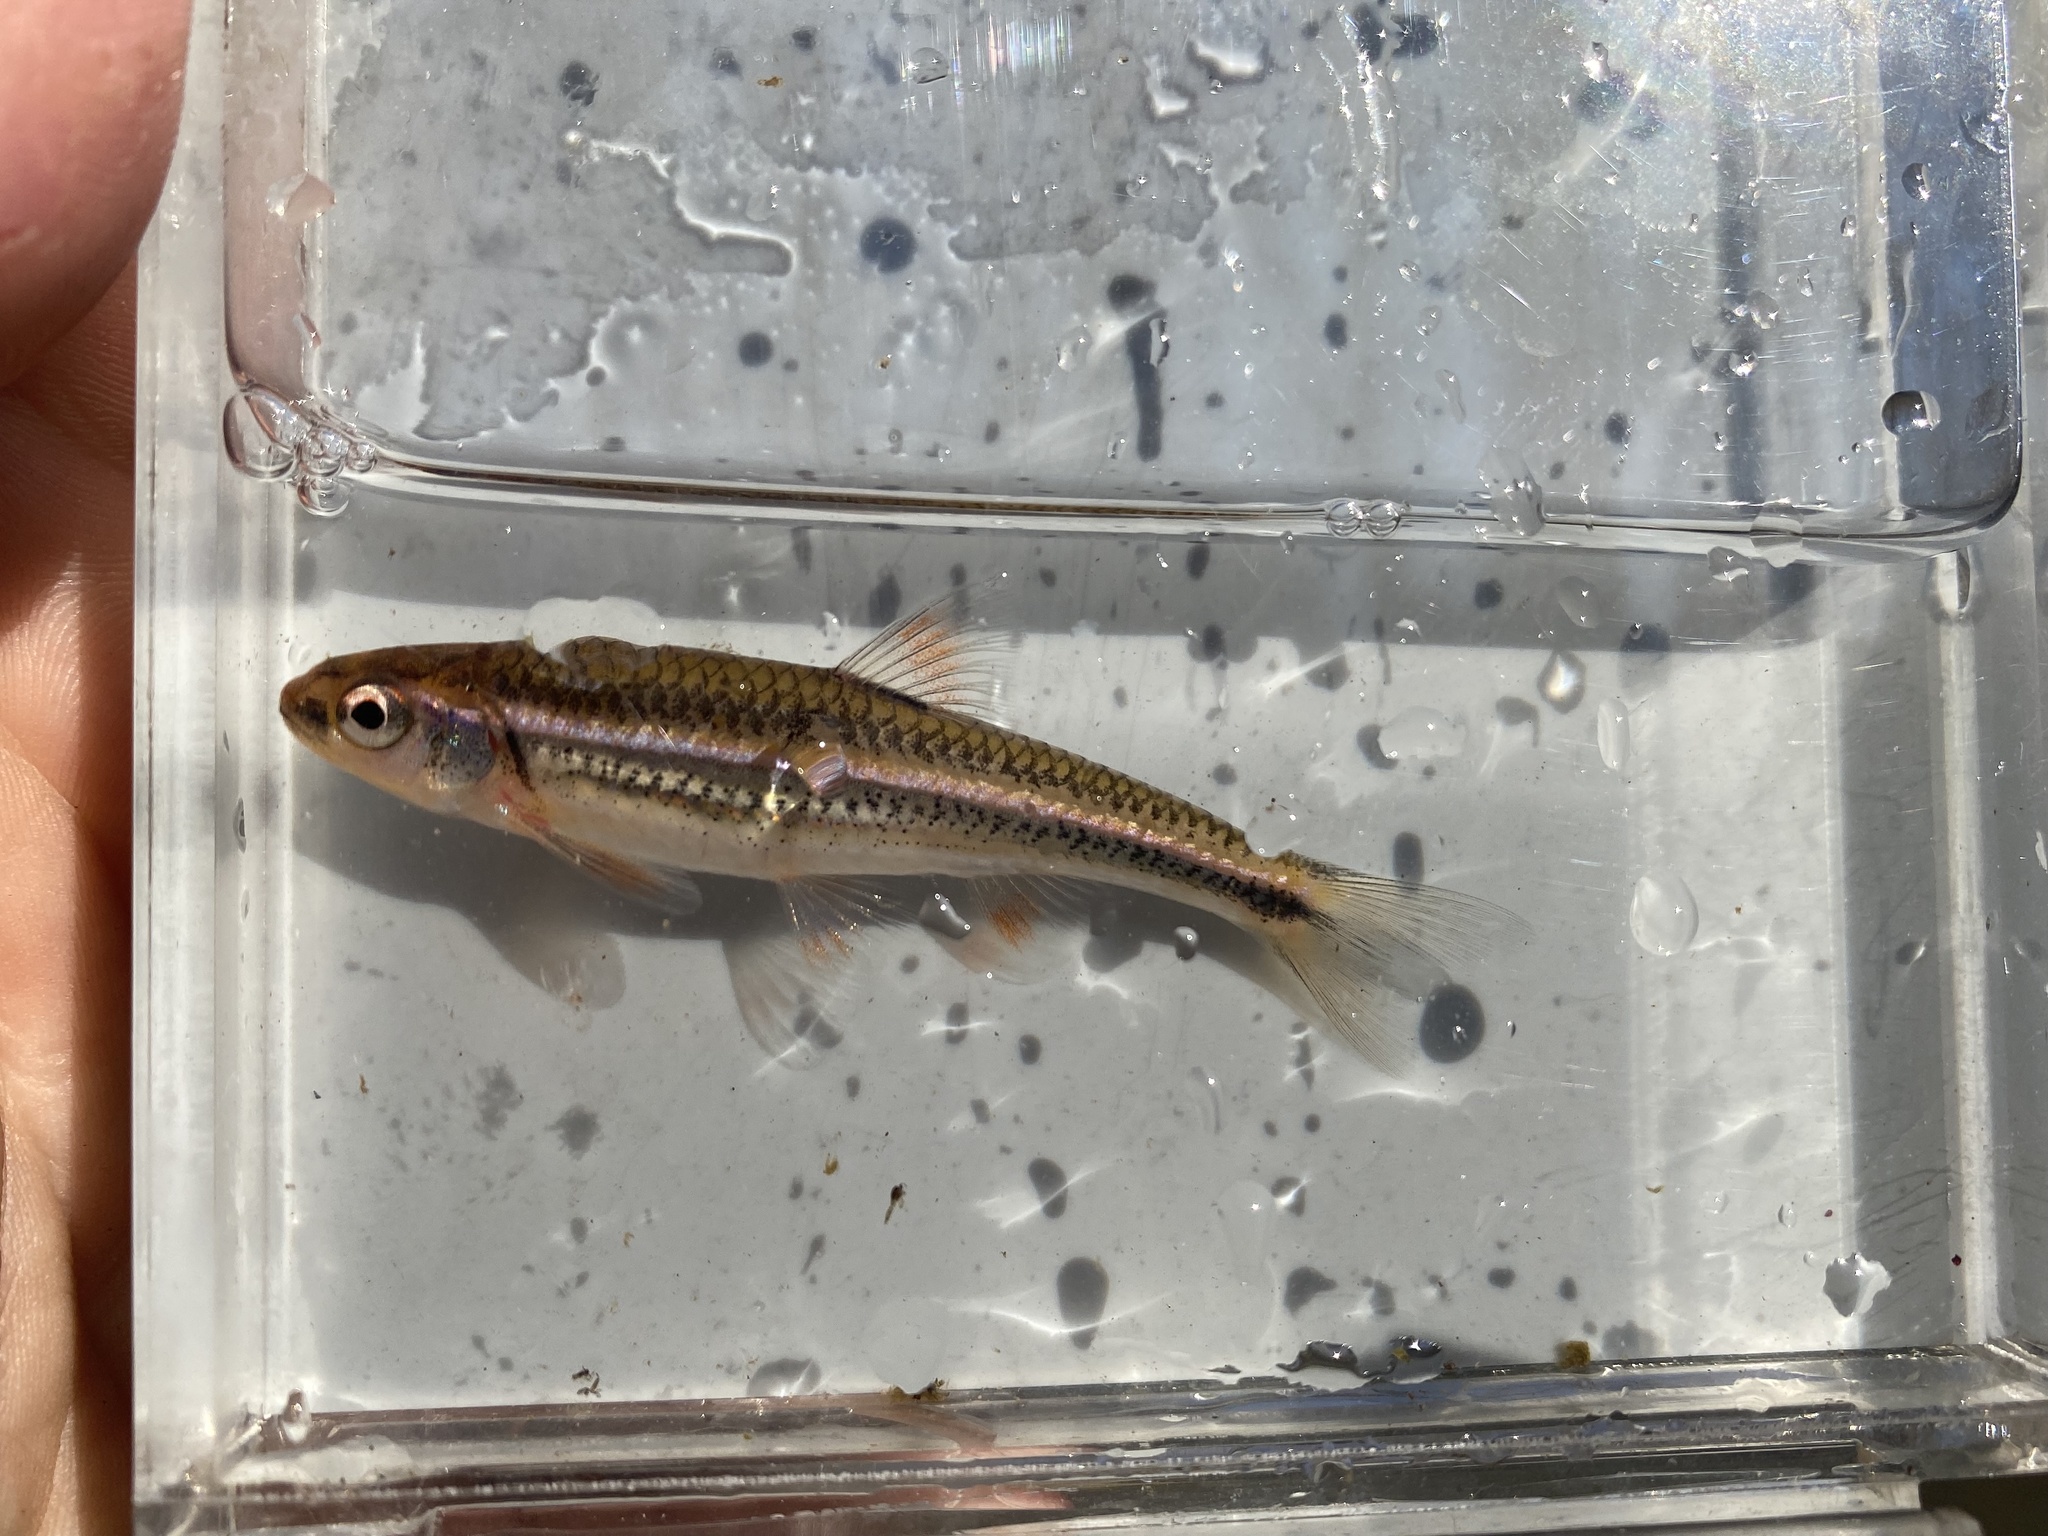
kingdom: Animalia
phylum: Chordata
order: Cypriniformes
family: Cyprinidae
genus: Notropis
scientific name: Notropis
